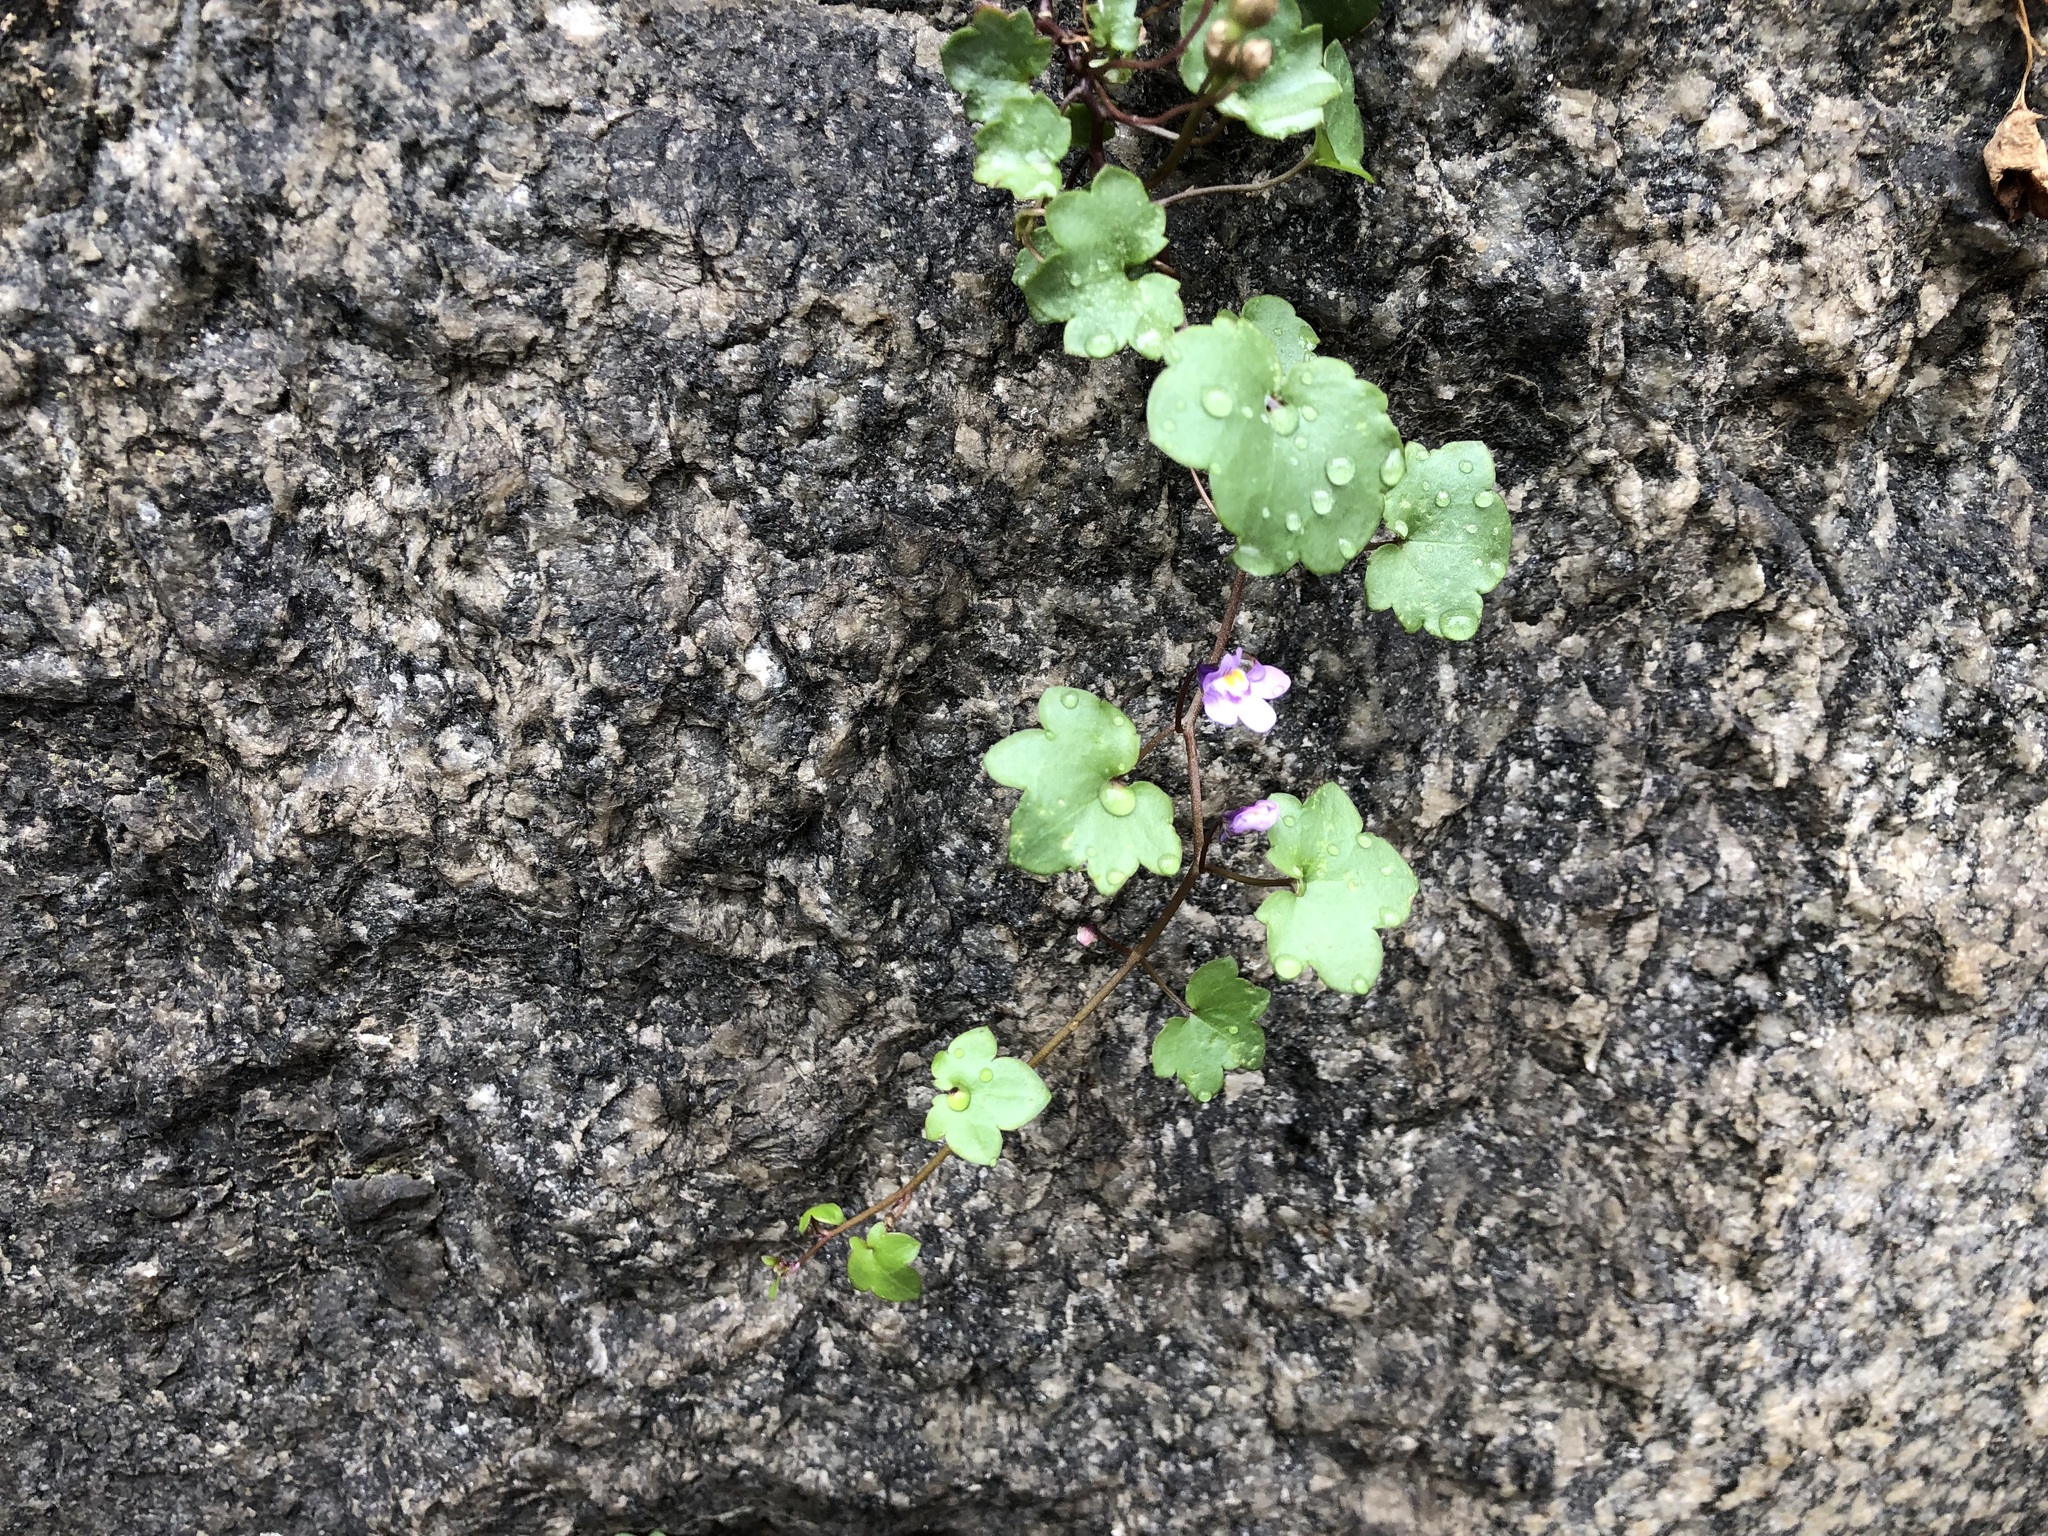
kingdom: Plantae
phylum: Tracheophyta
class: Magnoliopsida
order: Lamiales
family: Plantaginaceae
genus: Cymbalaria
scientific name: Cymbalaria muralis
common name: Ivy-leaved toadflax
